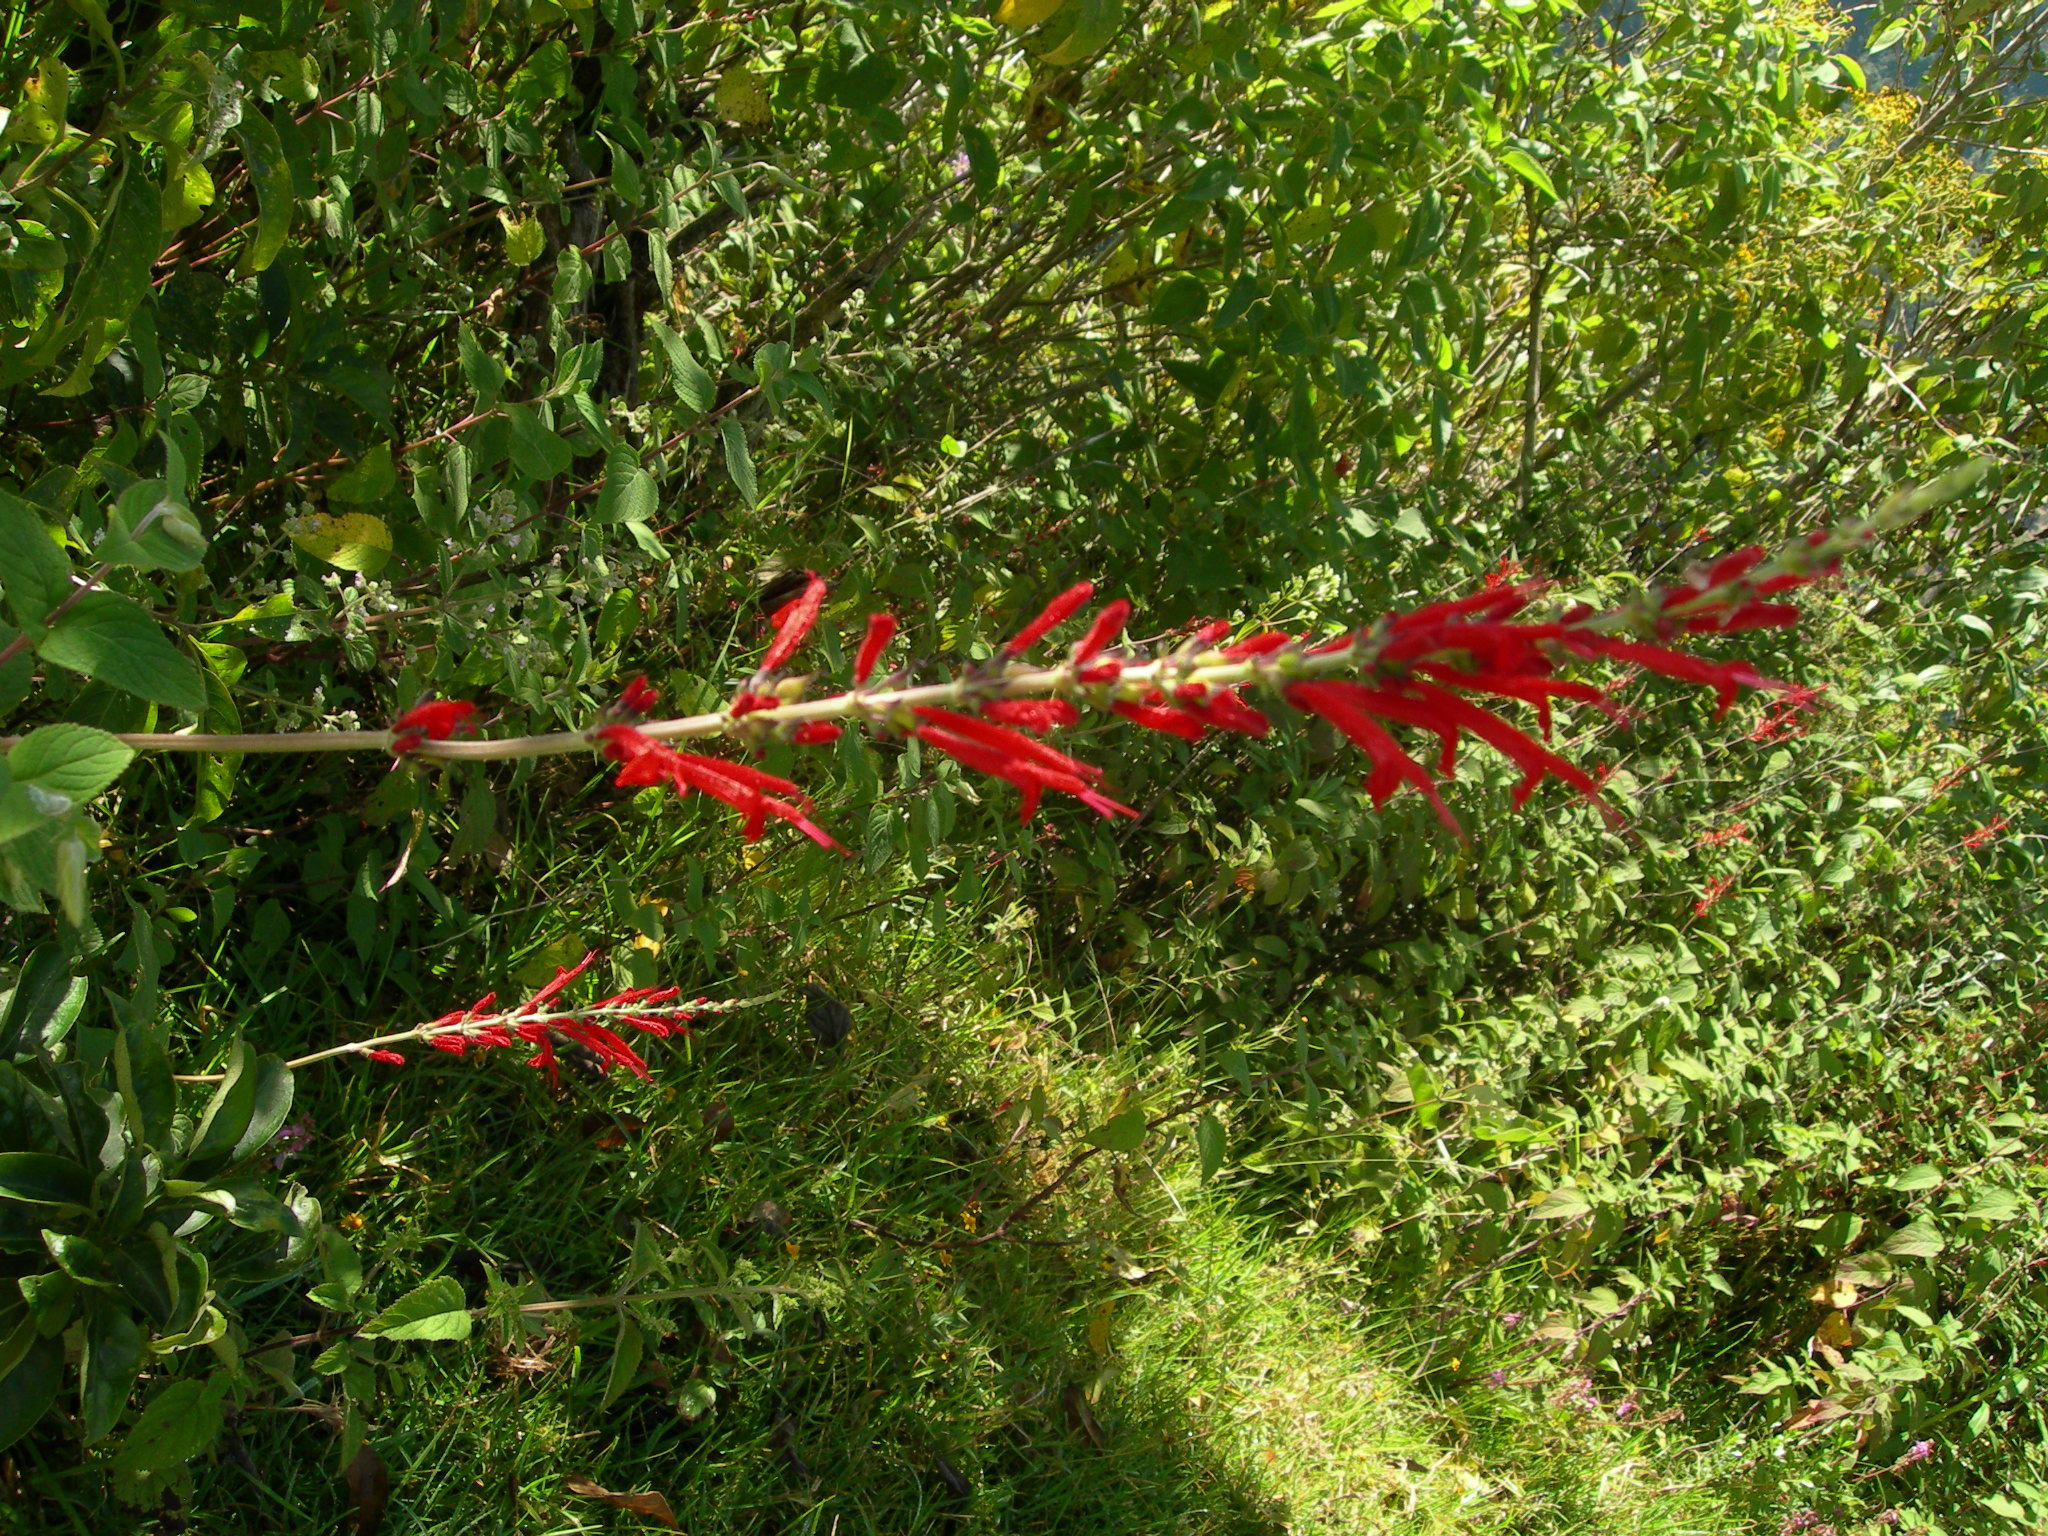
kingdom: Plantae
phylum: Tracheophyta
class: Magnoliopsida
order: Lamiales
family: Lamiaceae
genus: Salvia
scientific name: Salvia cinnabarina
